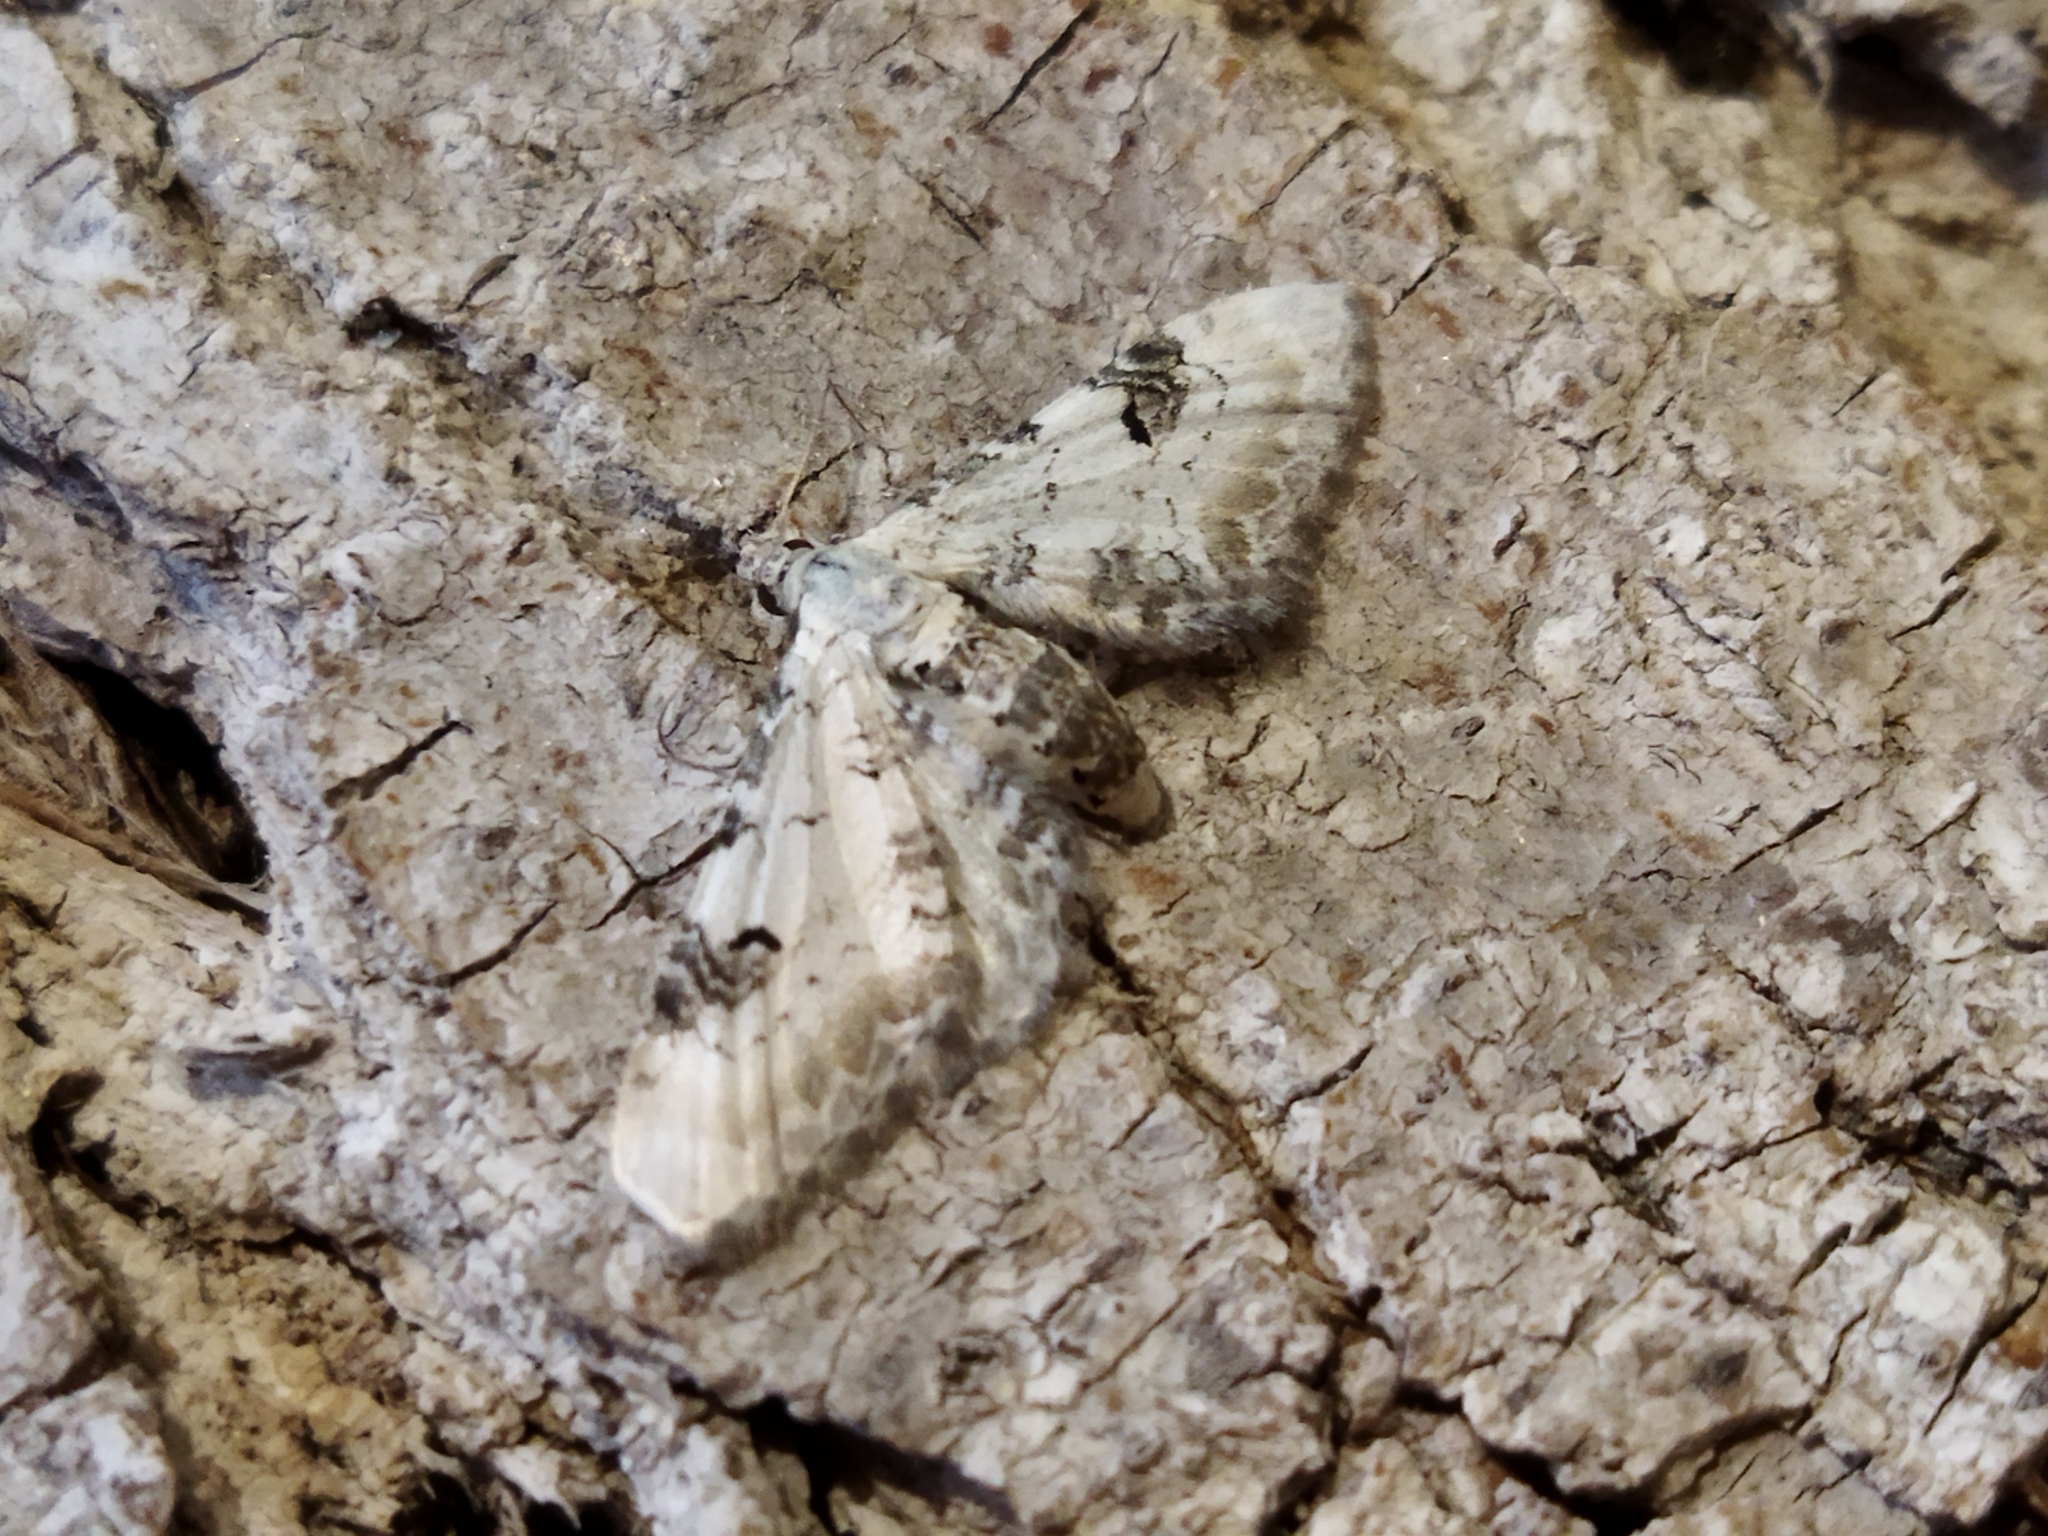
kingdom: Animalia
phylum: Arthropoda
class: Insecta
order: Lepidoptera
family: Geometridae
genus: Eupithecia
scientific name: Eupithecia centaureata
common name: Lime-speck pug
